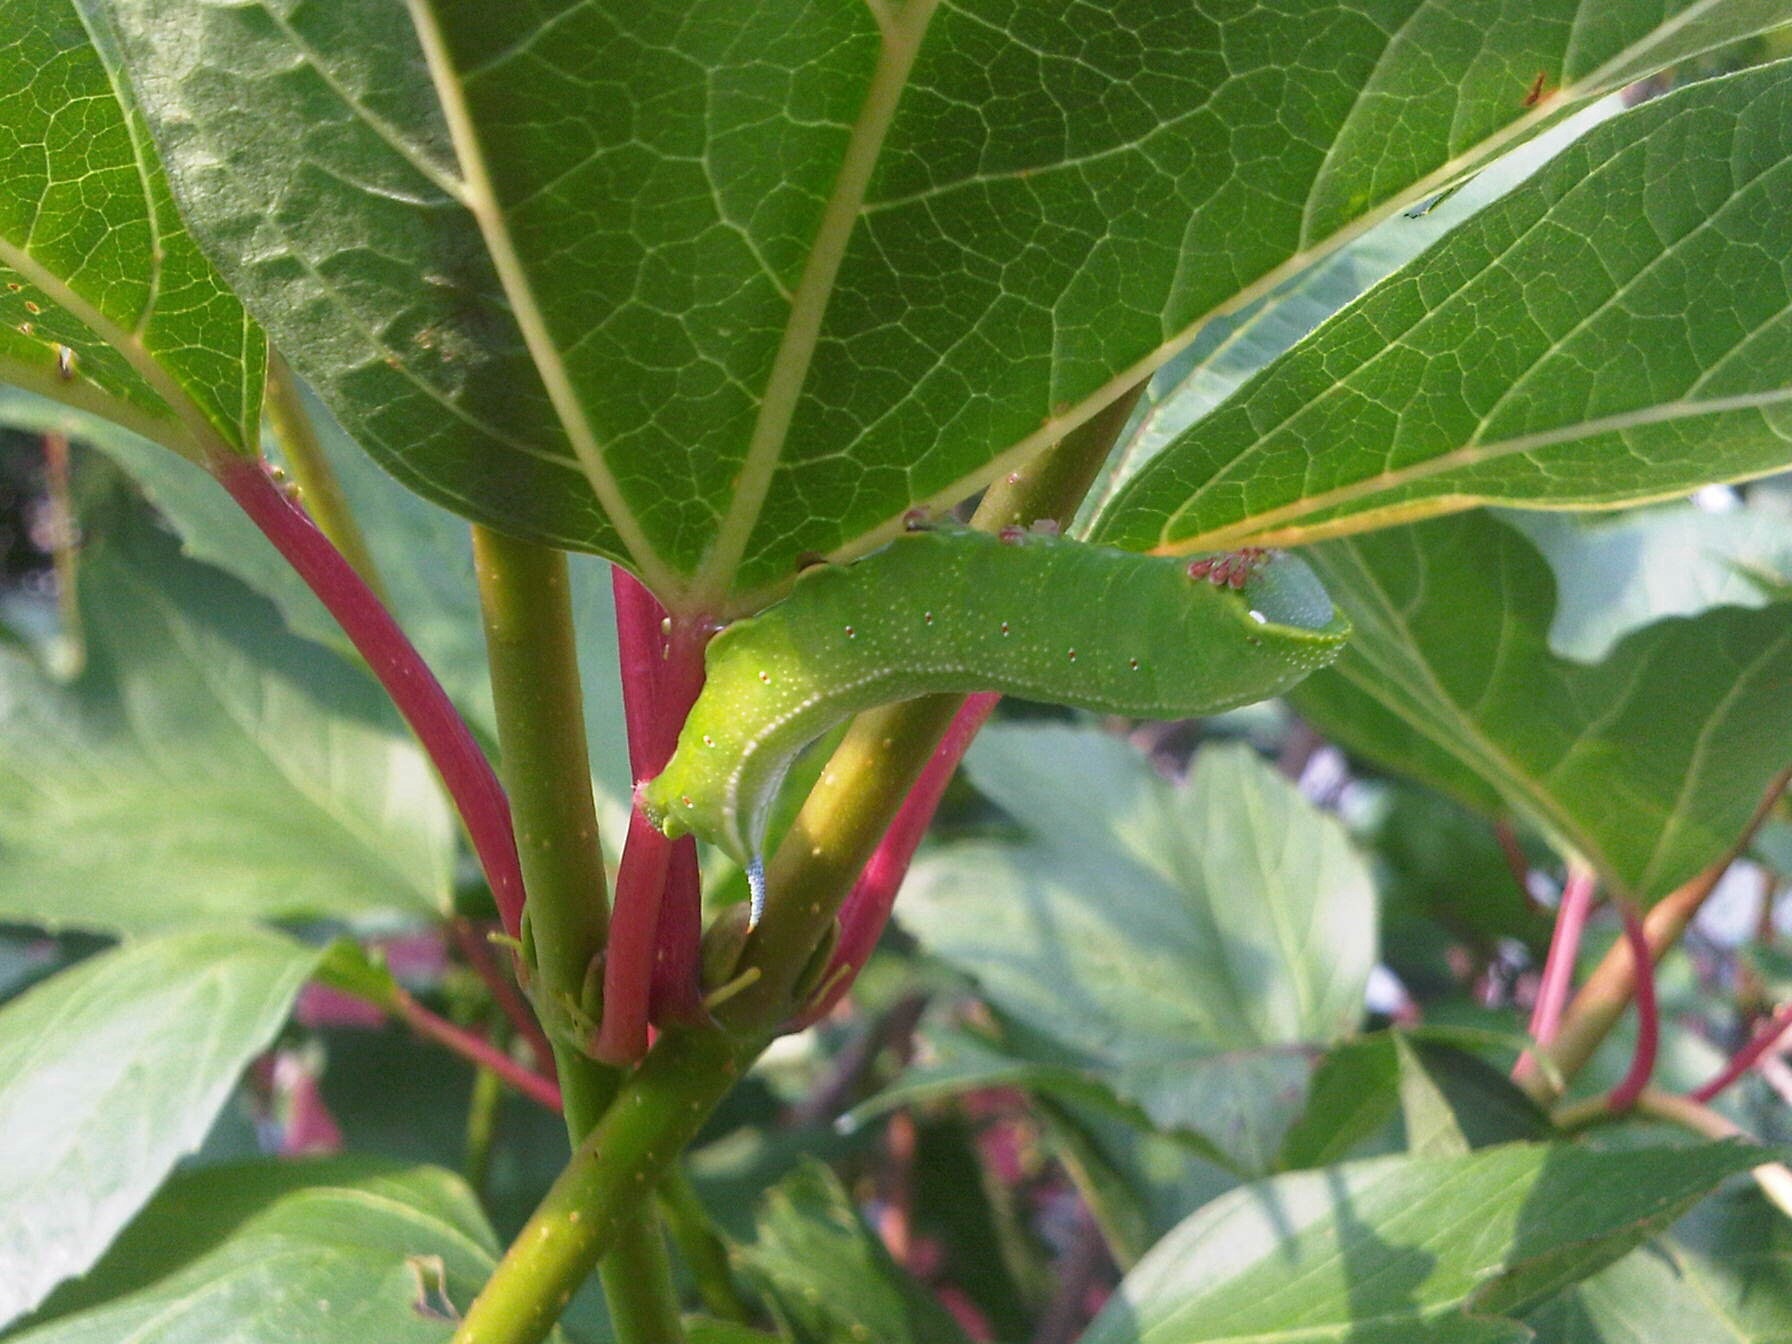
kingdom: Animalia
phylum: Arthropoda
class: Insecta
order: Lepidoptera
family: Sphingidae
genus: Hemaris
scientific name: Hemaris thysbe
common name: Common clear-wing
